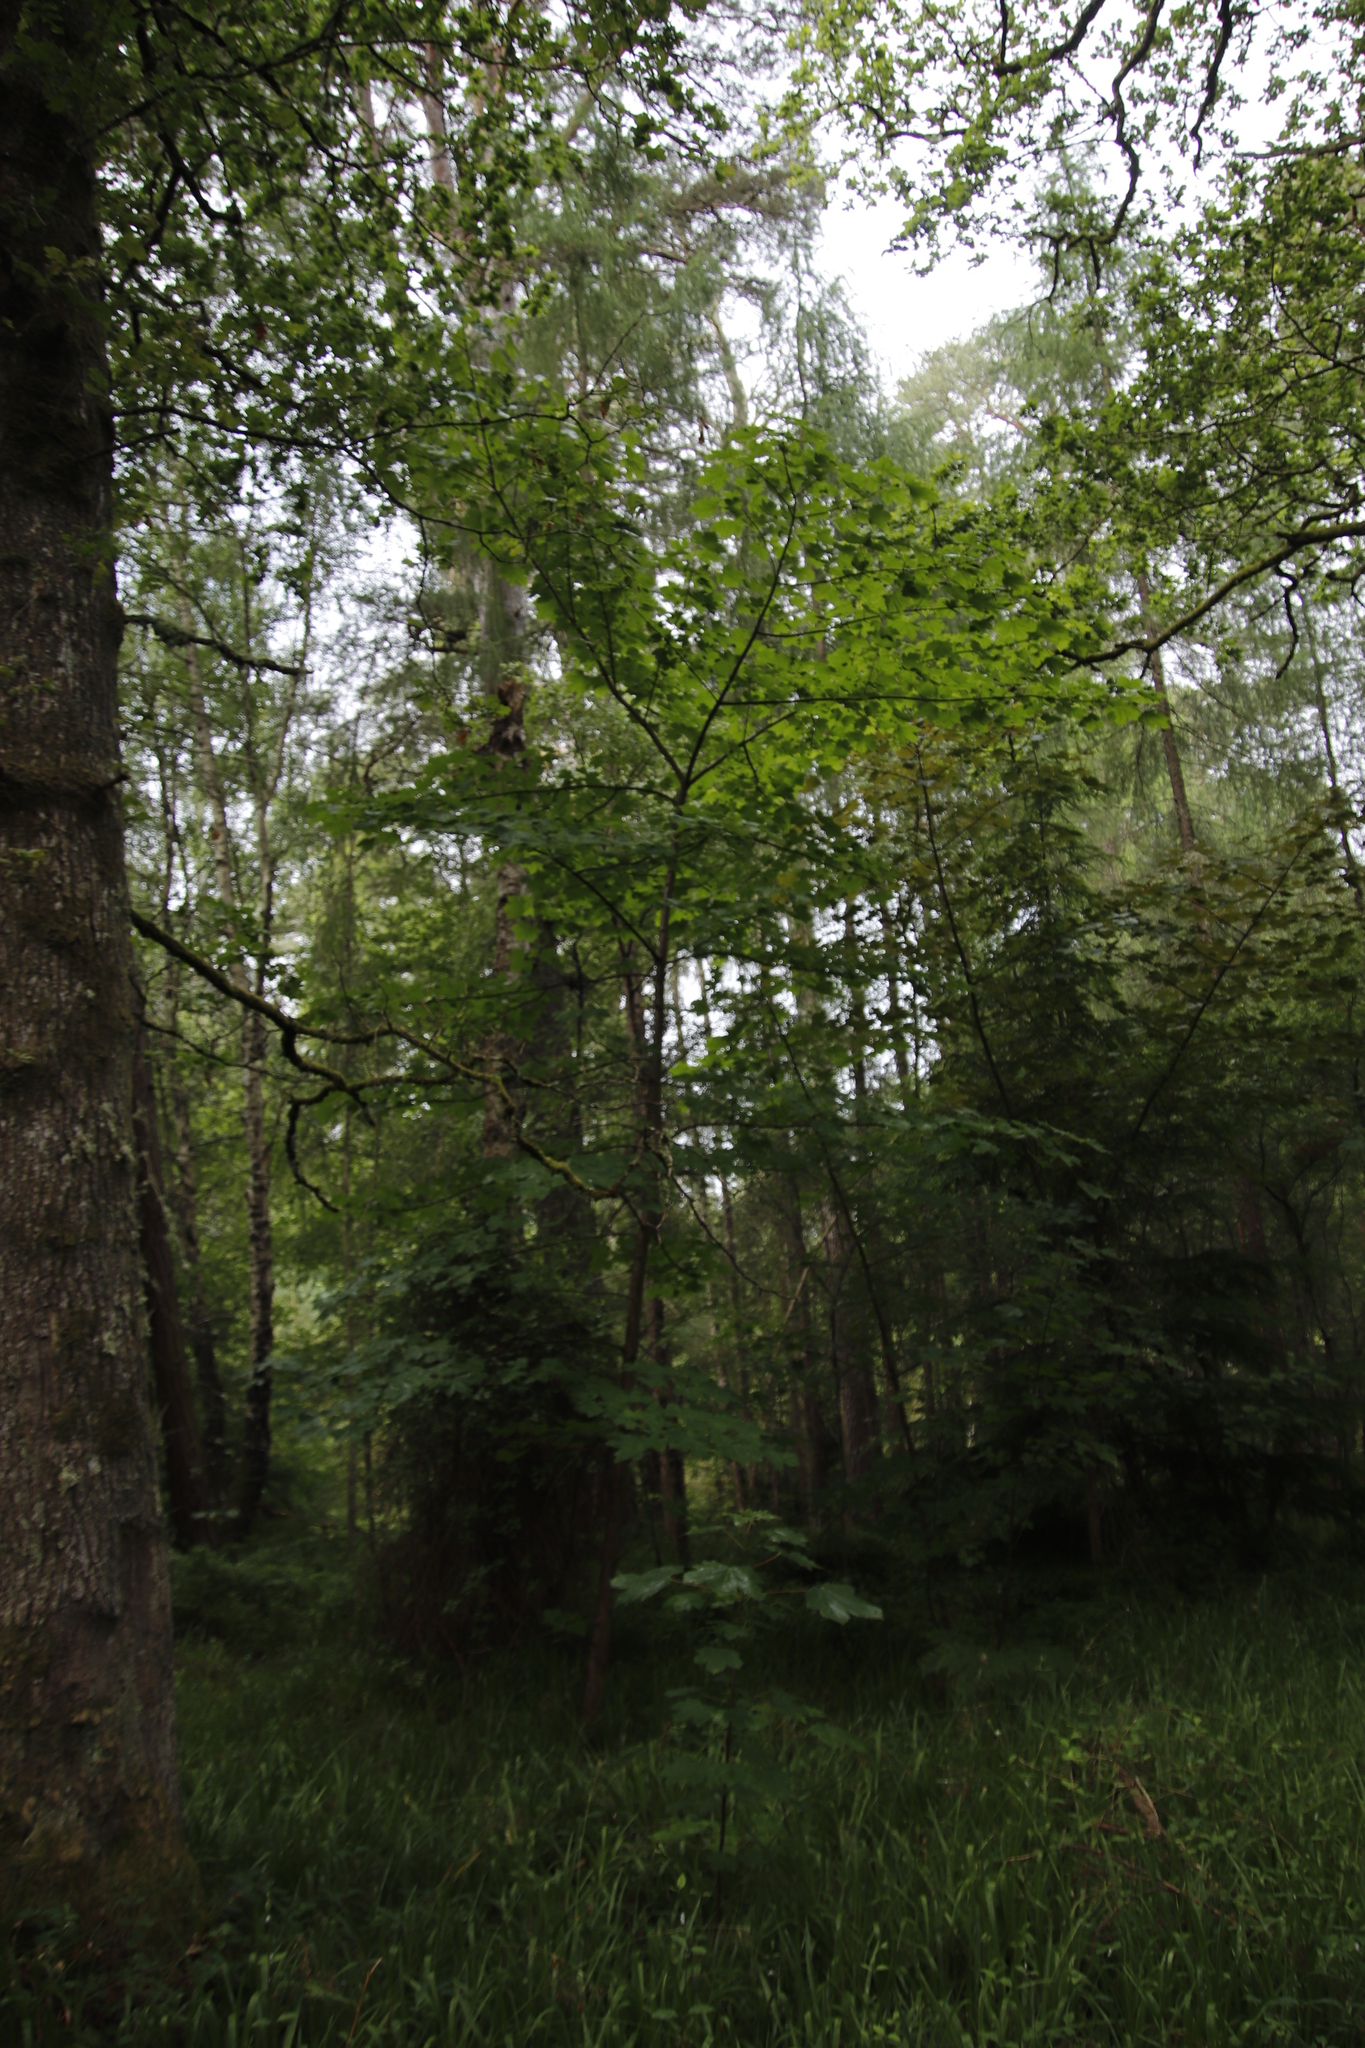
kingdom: Plantae
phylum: Tracheophyta
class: Magnoliopsida
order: Sapindales
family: Sapindaceae
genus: Acer
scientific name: Acer pseudoplatanus
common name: Sycamore
